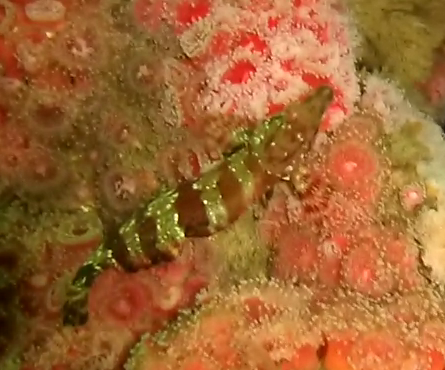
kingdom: Animalia
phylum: Chordata
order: Scorpaeniformes
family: Hexagrammidae
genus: Oxylebius
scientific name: Oxylebius pictus
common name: Painted greenling
